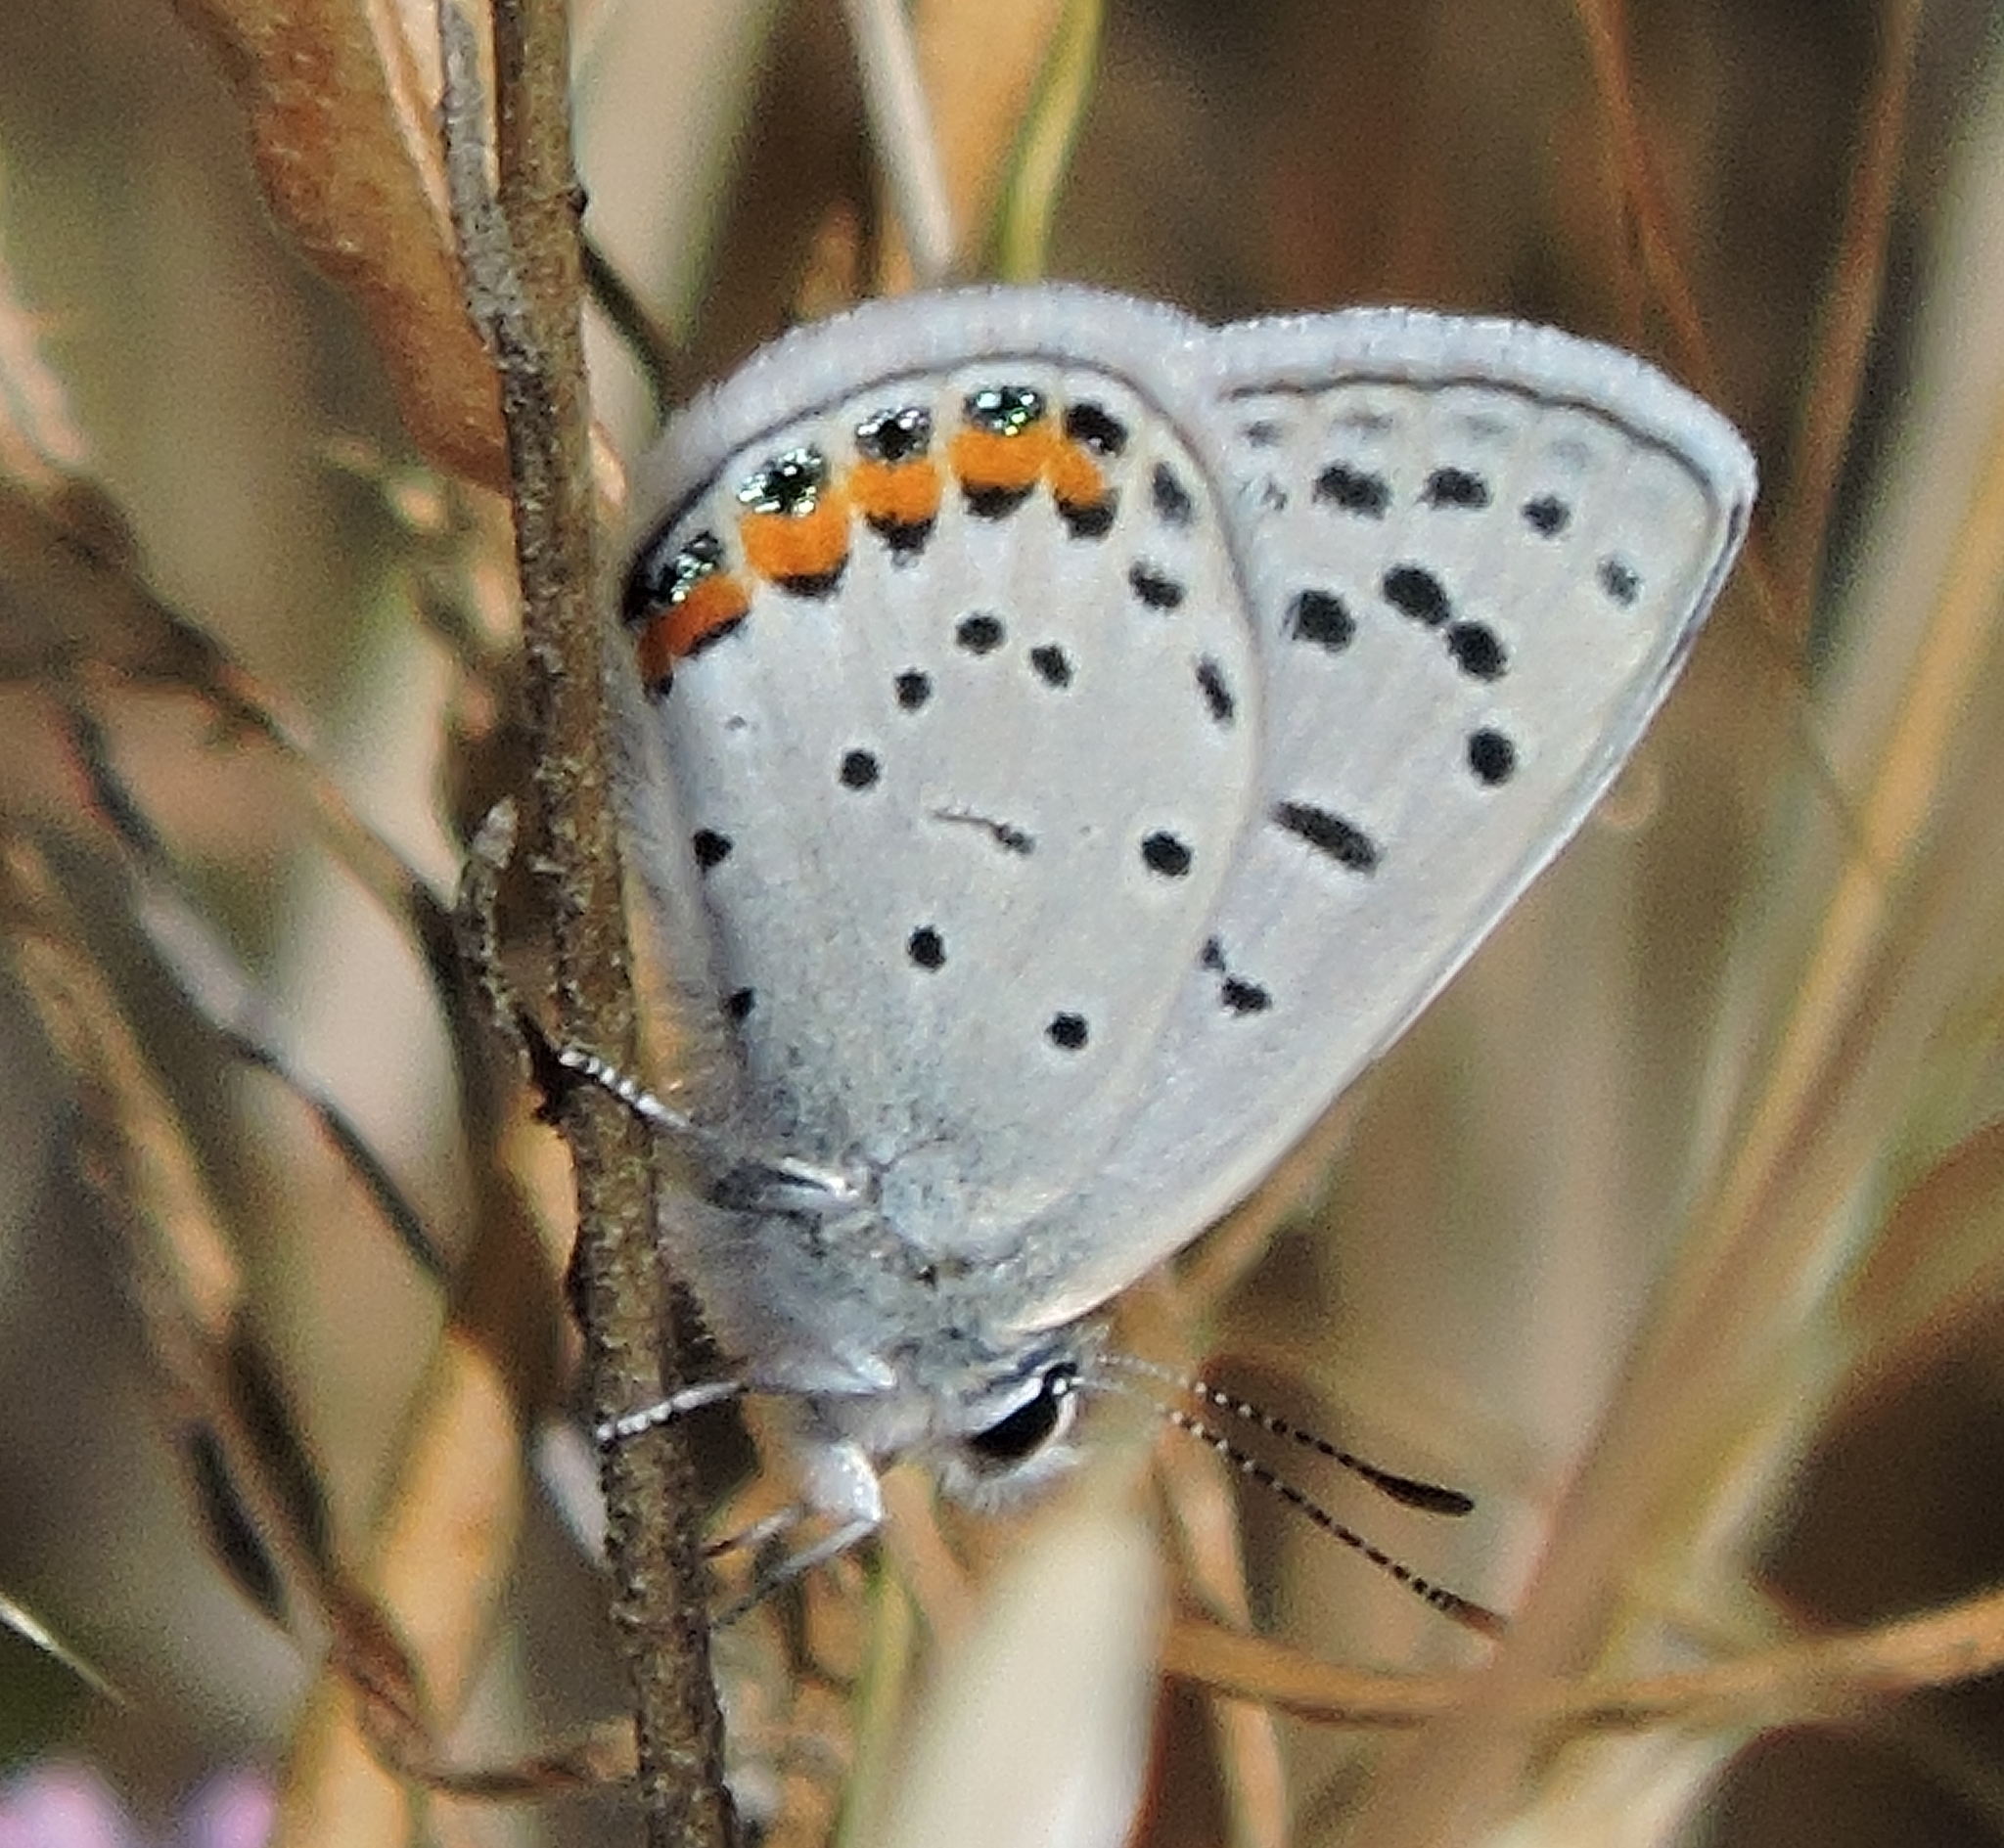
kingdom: Animalia
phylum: Arthropoda
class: Insecta
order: Lepidoptera
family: Lycaenidae
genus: Icaricia
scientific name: Icaricia acmon
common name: Acmon blue
